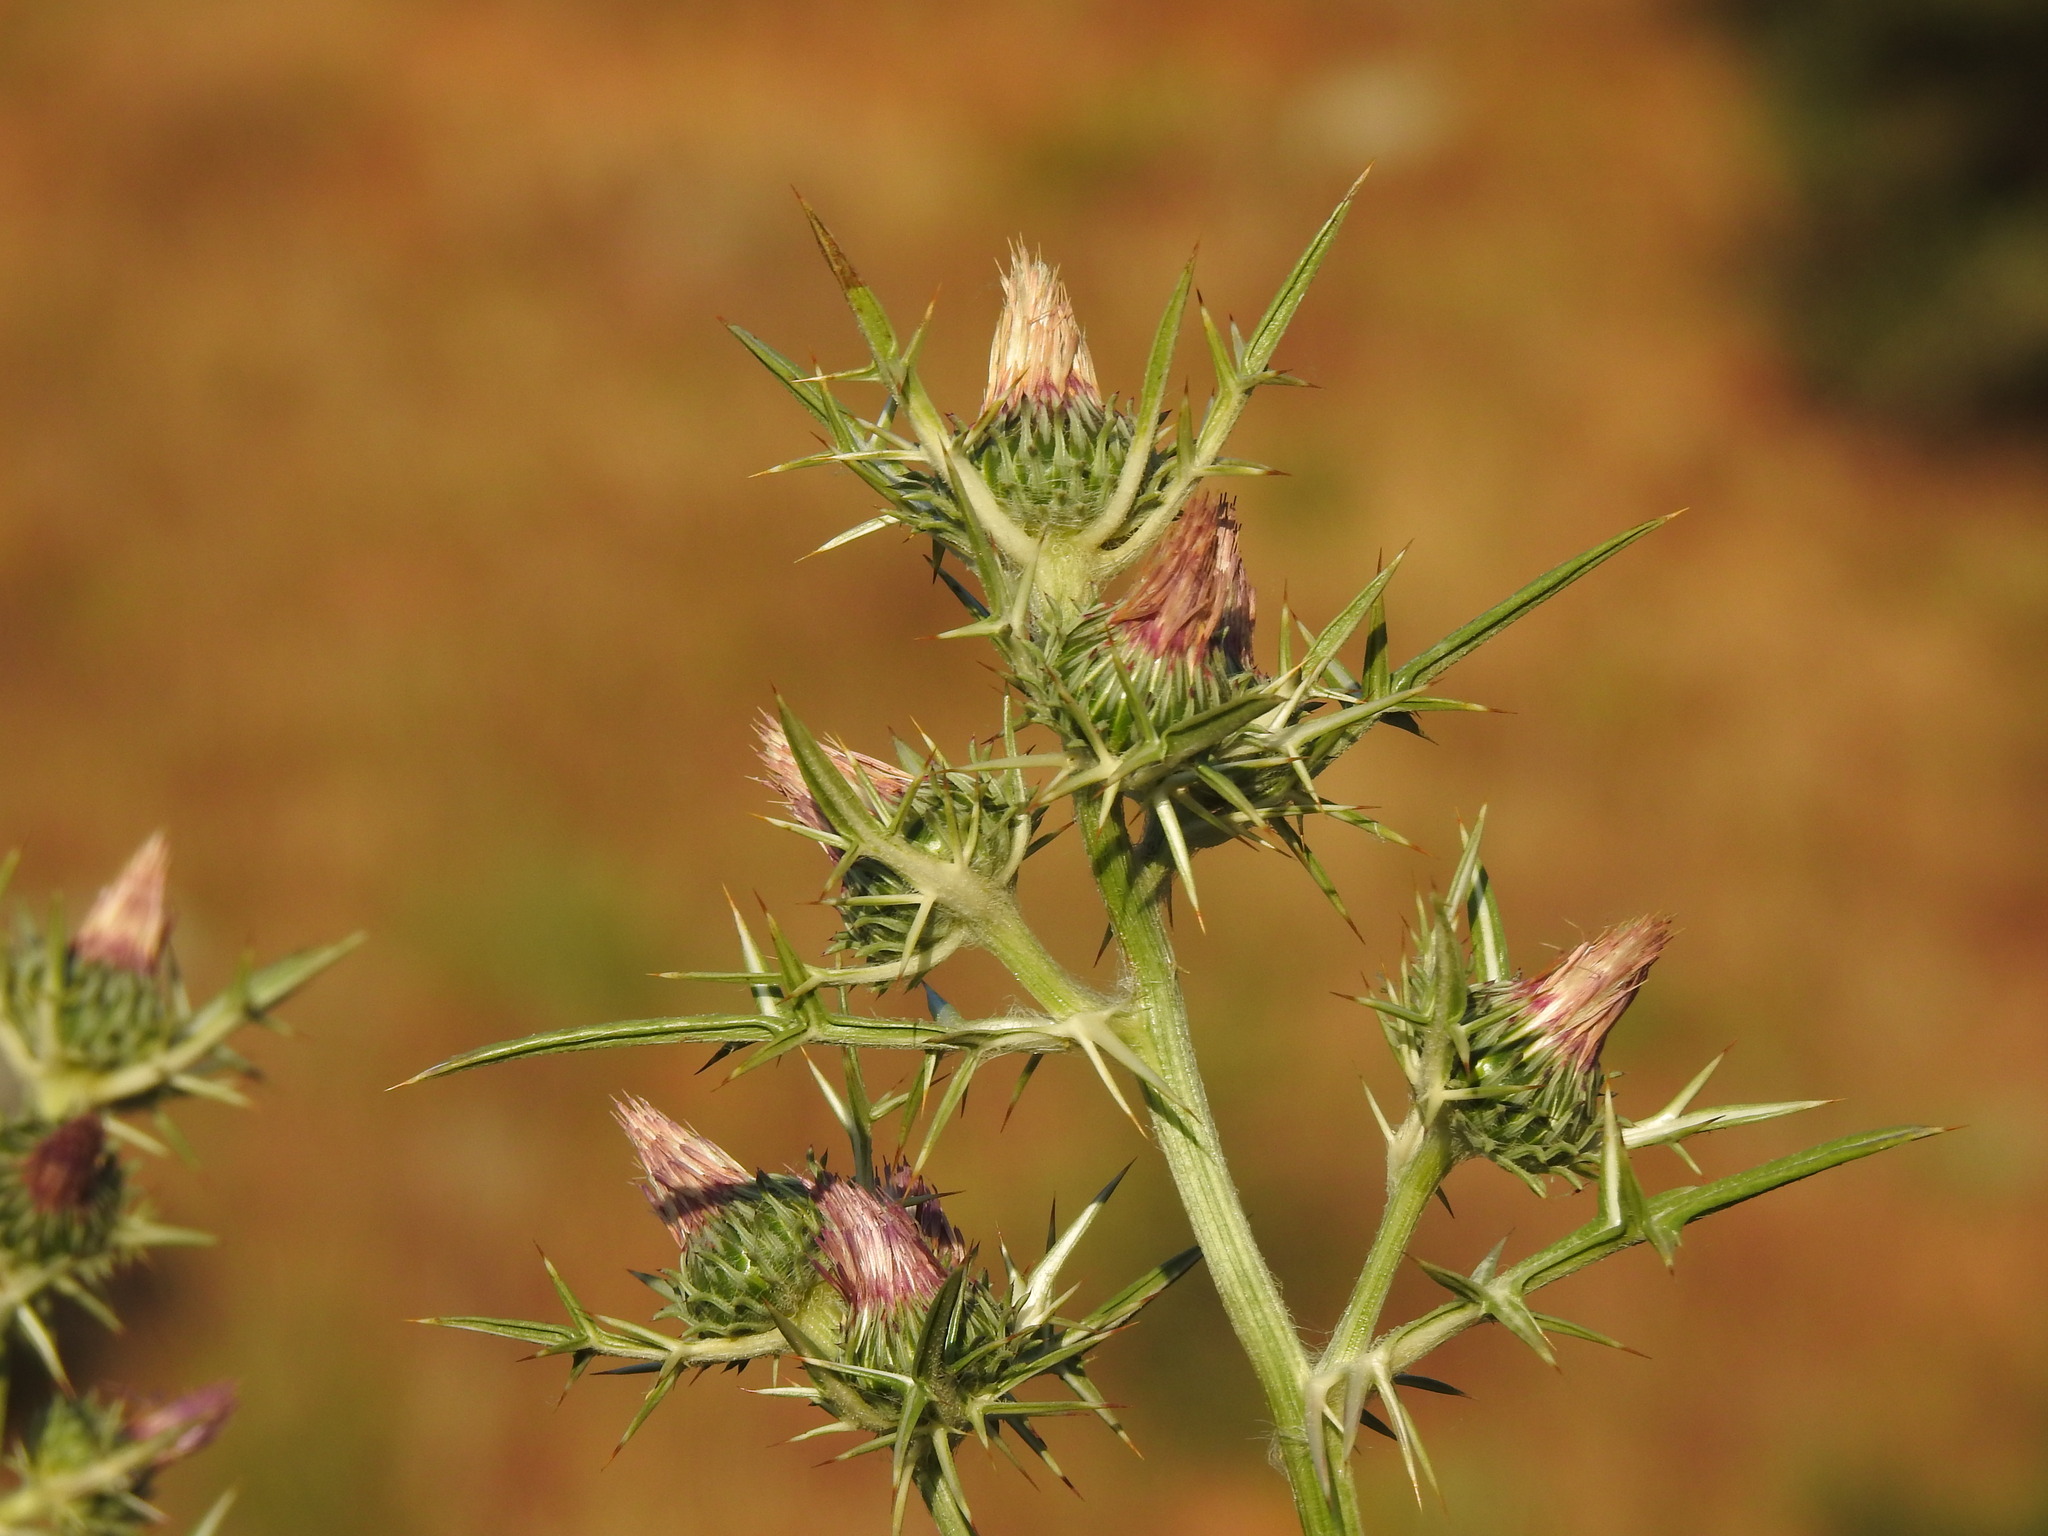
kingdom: Plantae
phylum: Tracheophyta
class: Magnoliopsida
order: Asterales
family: Asteraceae
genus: Notobasis
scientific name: Notobasis syriaca
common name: Syrian thistle
